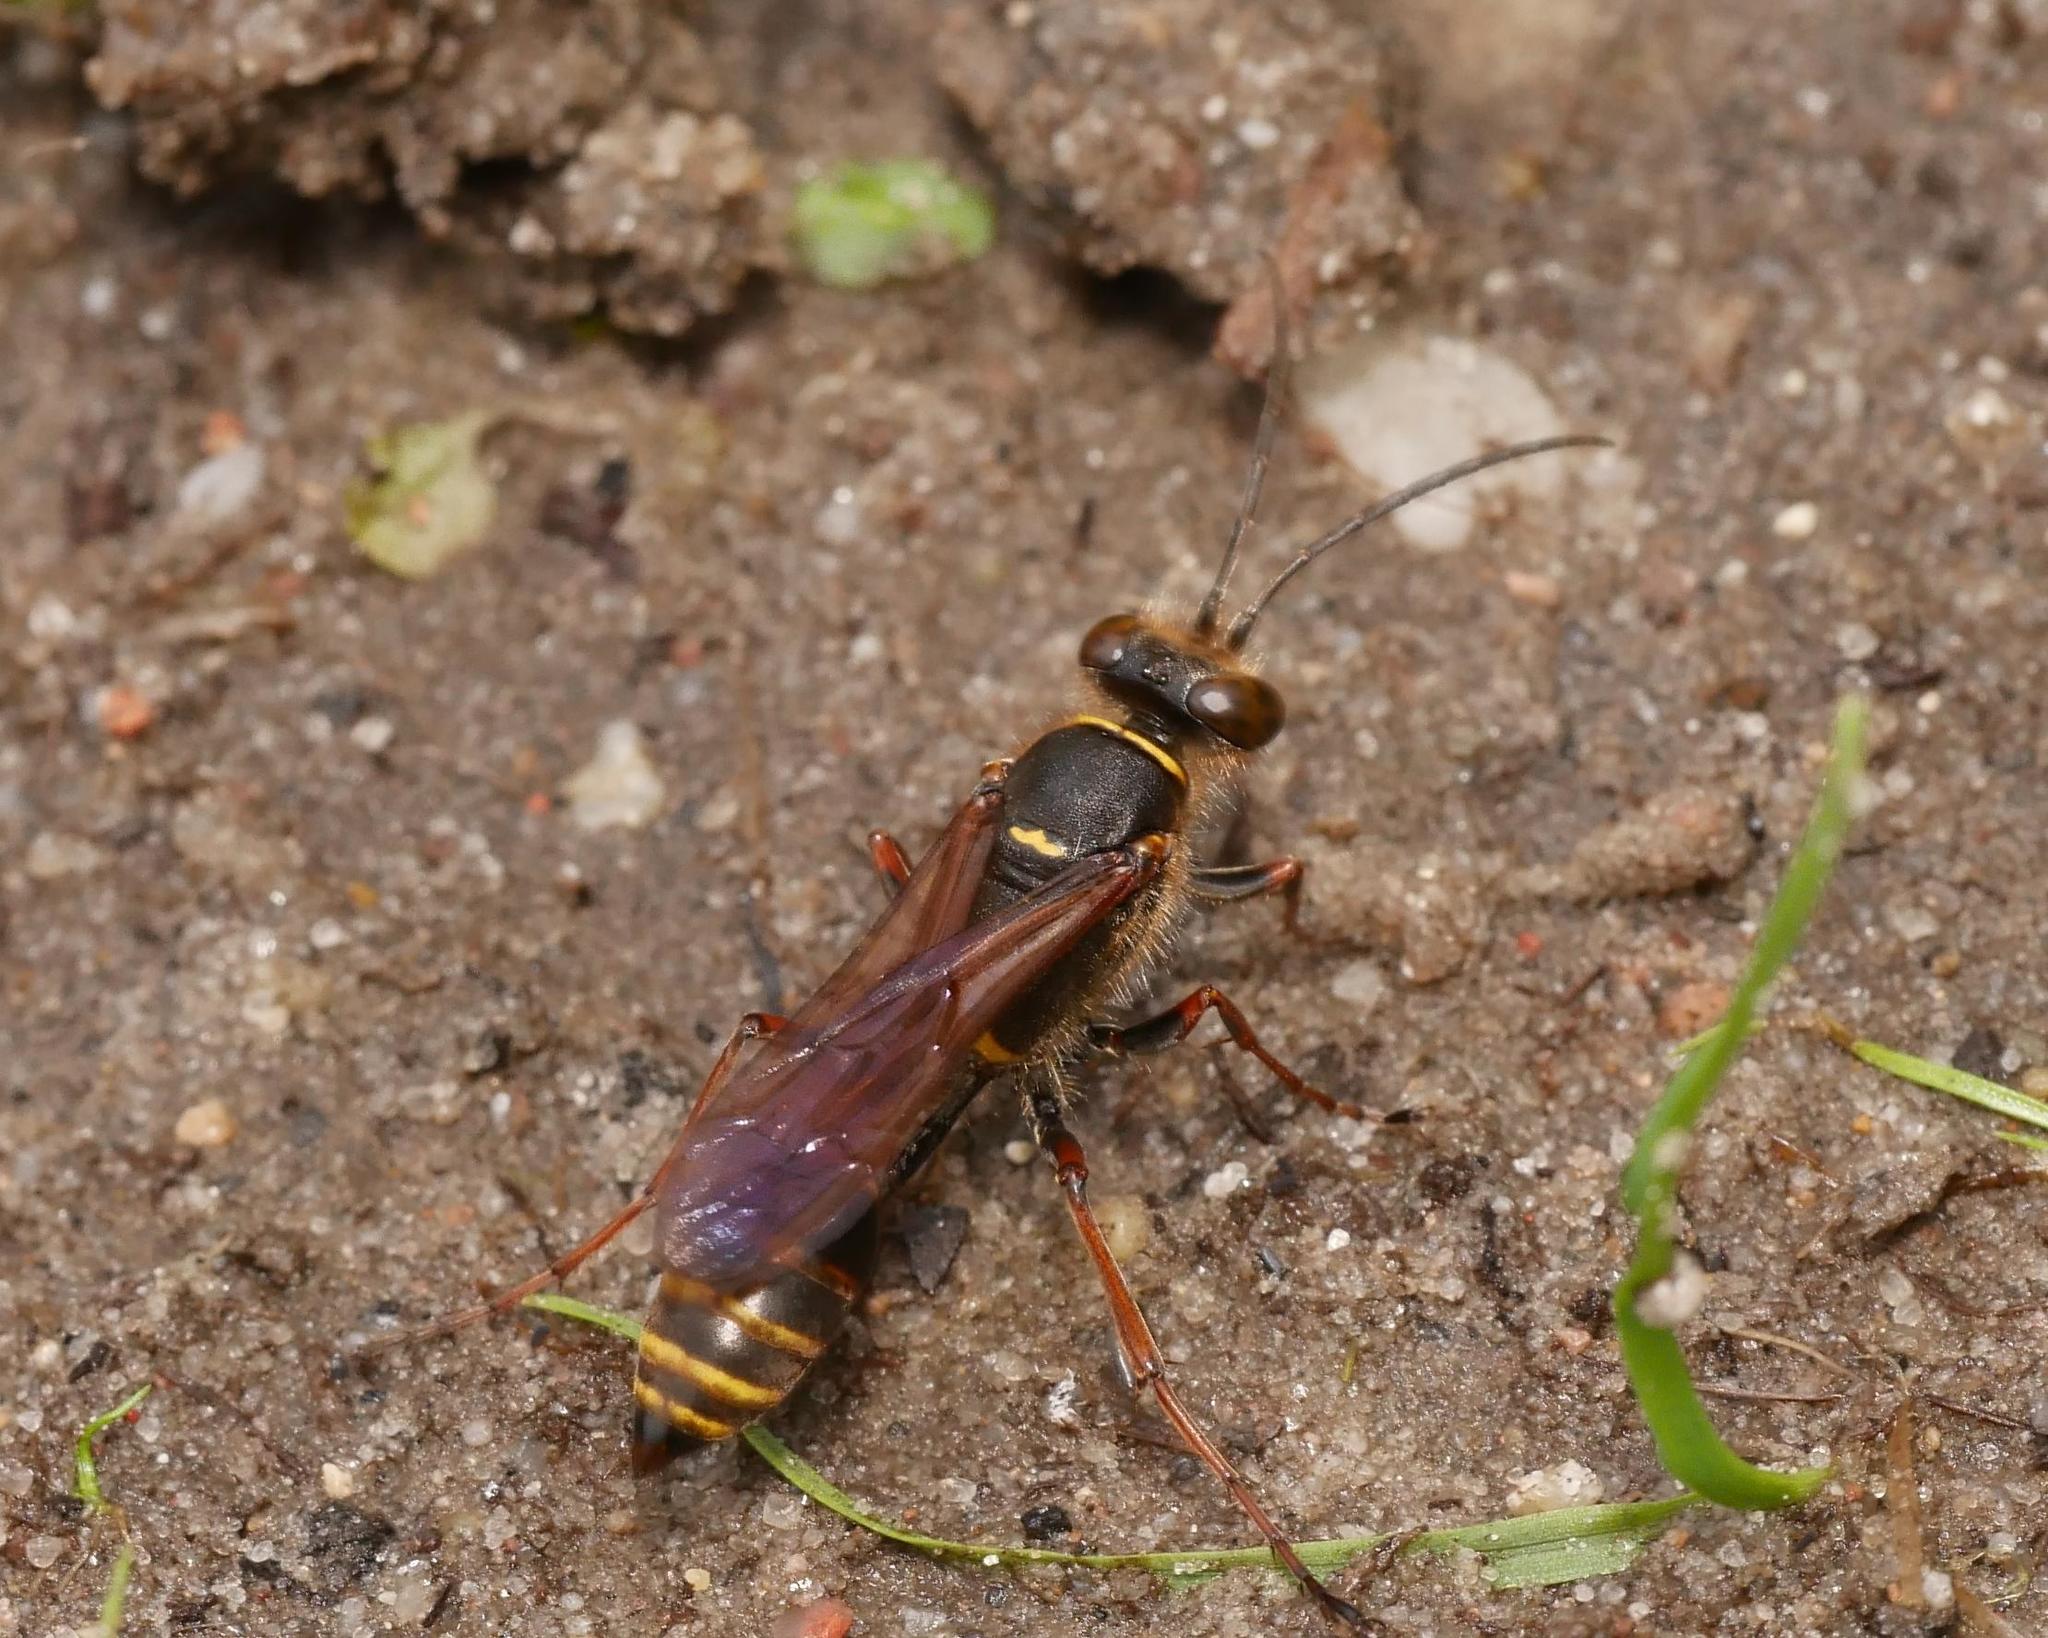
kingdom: Animalia
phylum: Arthropoda
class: Insecta
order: Hymenoptera
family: Sphecidae
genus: Sceliphron
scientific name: Sceliphron curvatum
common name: Pèlopèe
